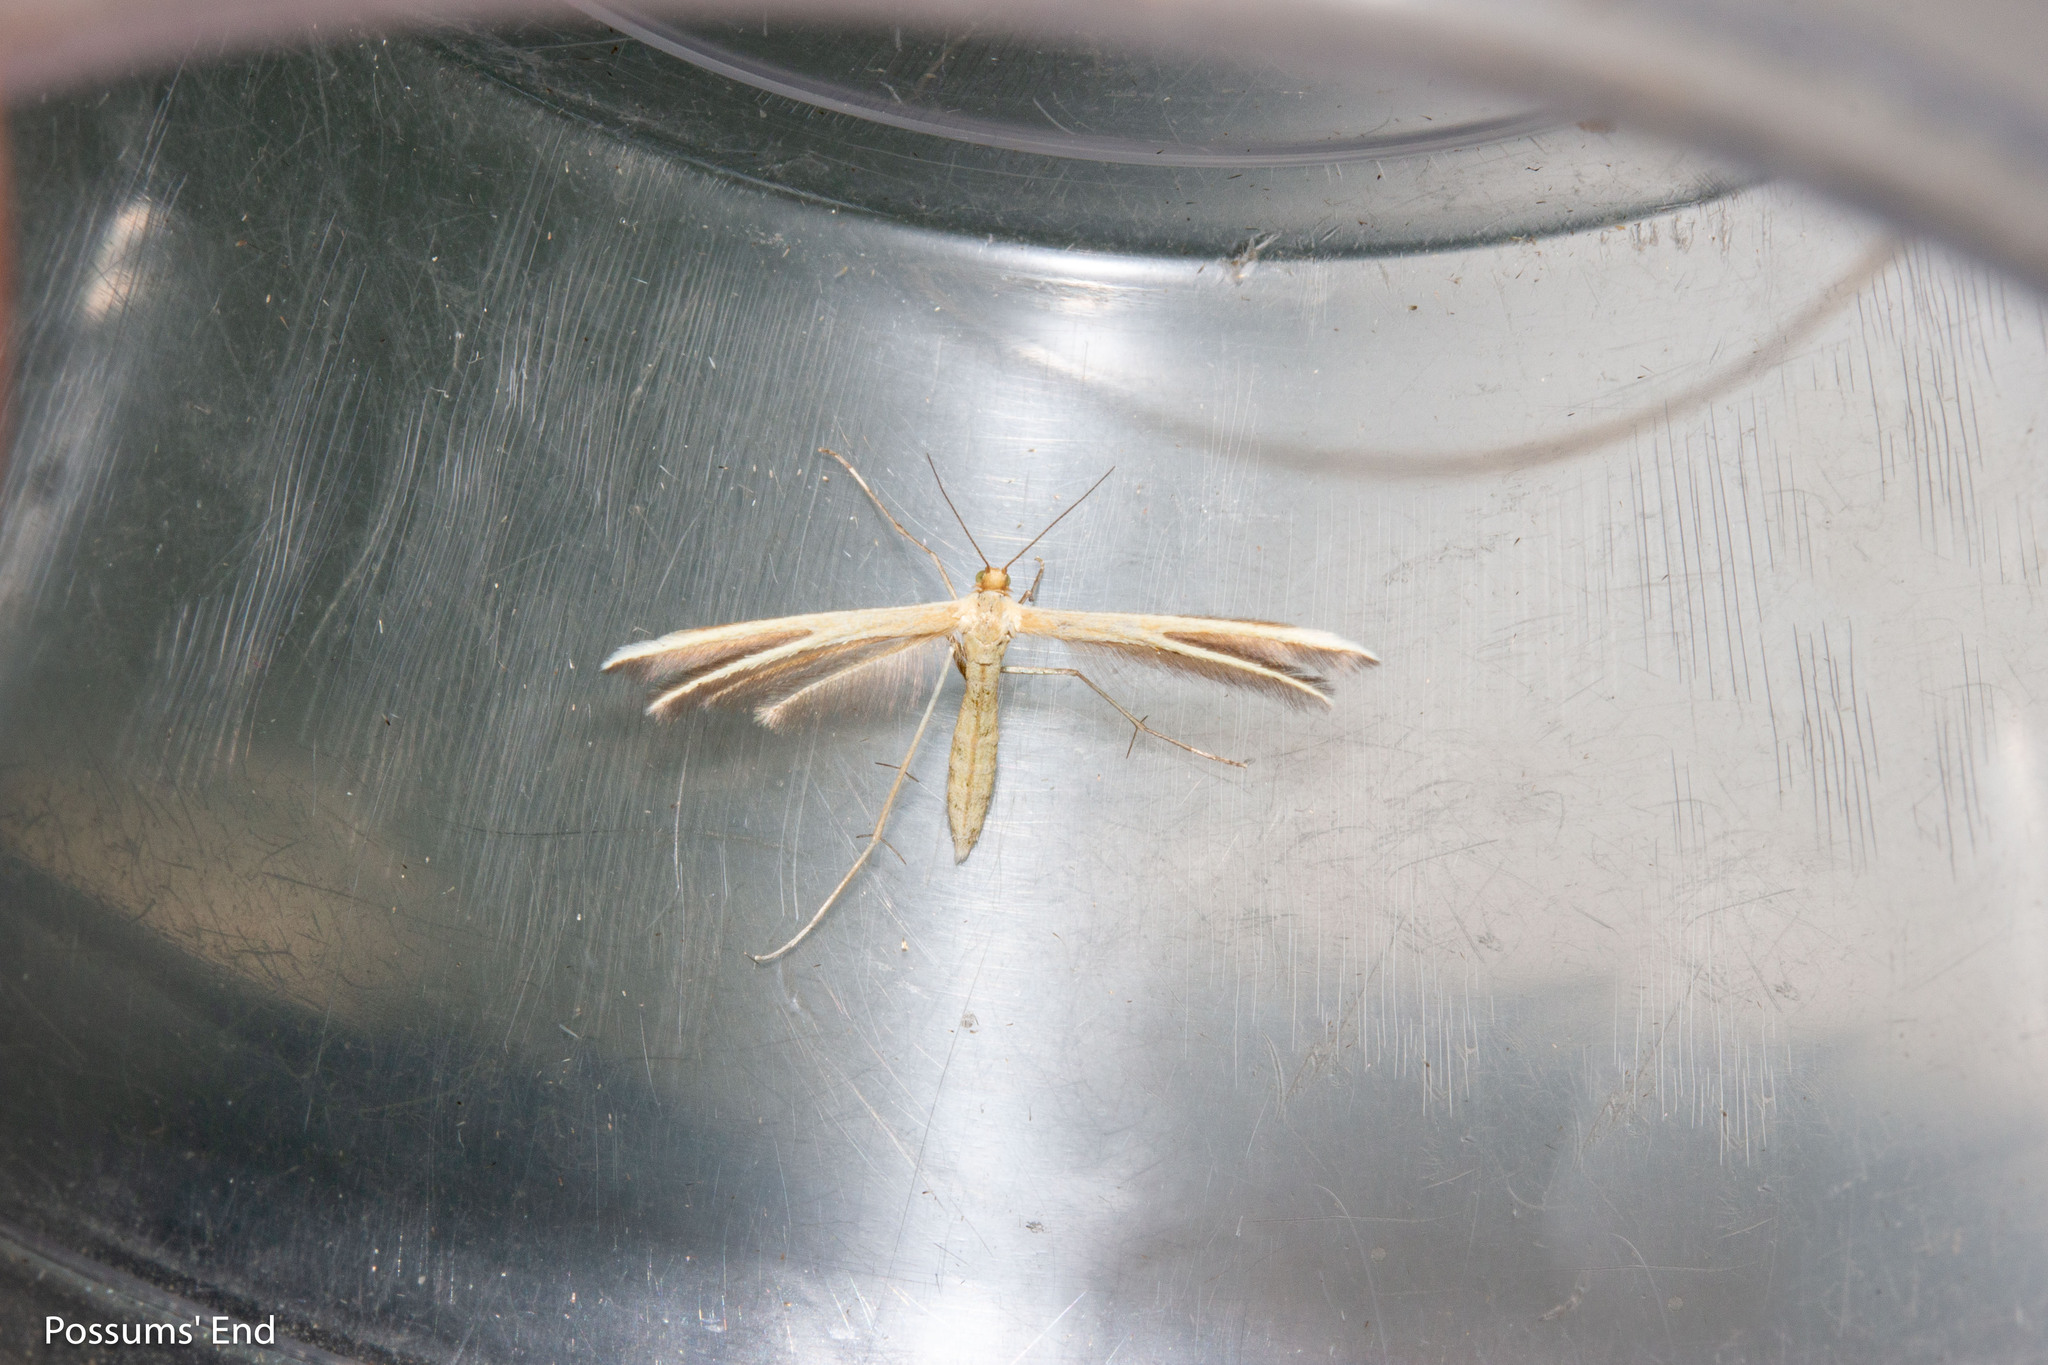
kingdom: Animalia
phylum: Arthropoda
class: Insecta
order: Lepidoptera
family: Pterophoridae
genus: Pterophorus
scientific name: Pterophorus innotatalis
